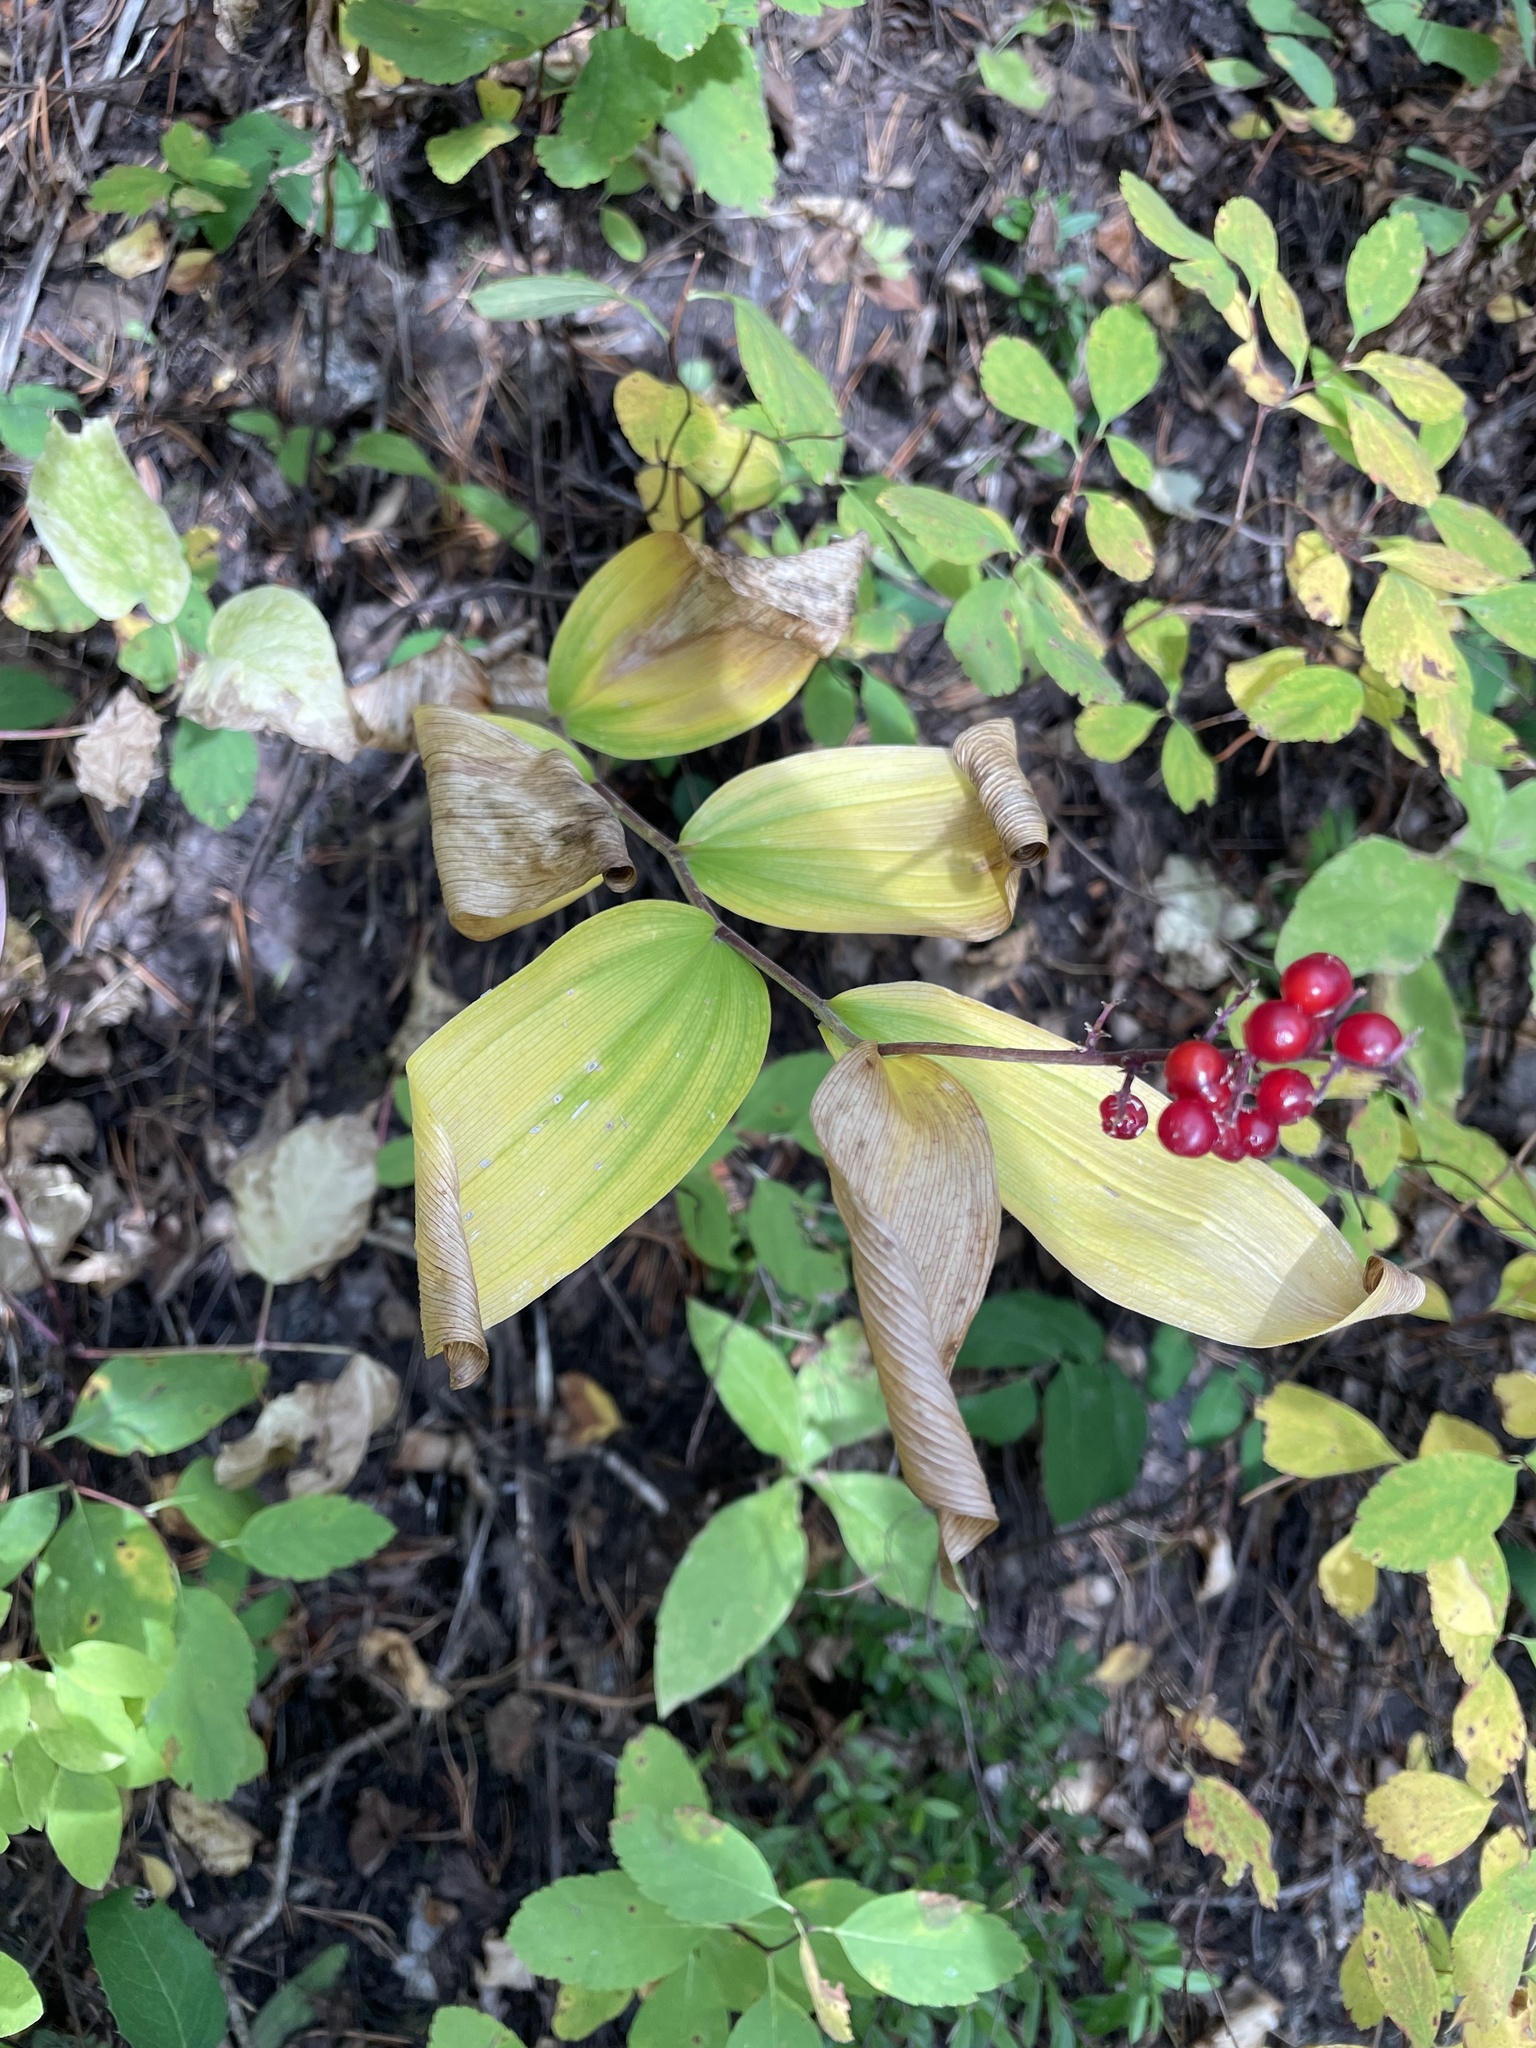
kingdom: Plantae
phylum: Tracheophyta
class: Liliopsida
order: Asparagales
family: Asparagaceae
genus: Maianthemum
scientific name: Maianthemum racemosum
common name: False spikenard
